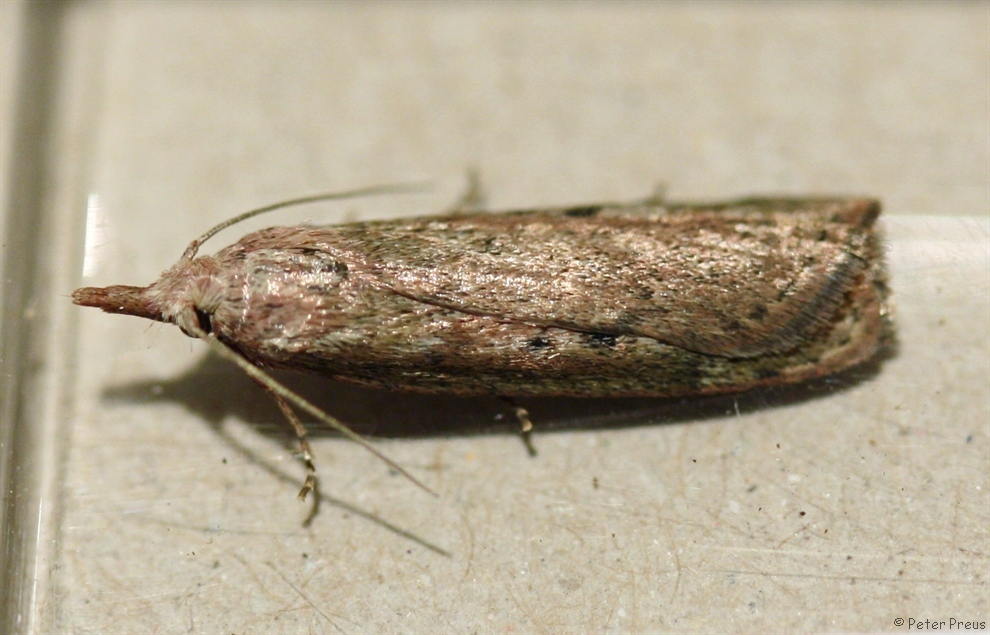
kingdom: Animalia
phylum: Arthropoda
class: Insecta
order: Lepidoptera
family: Pyralidae
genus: Aphomia
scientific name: Aphomia sociella
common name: Bee moth
